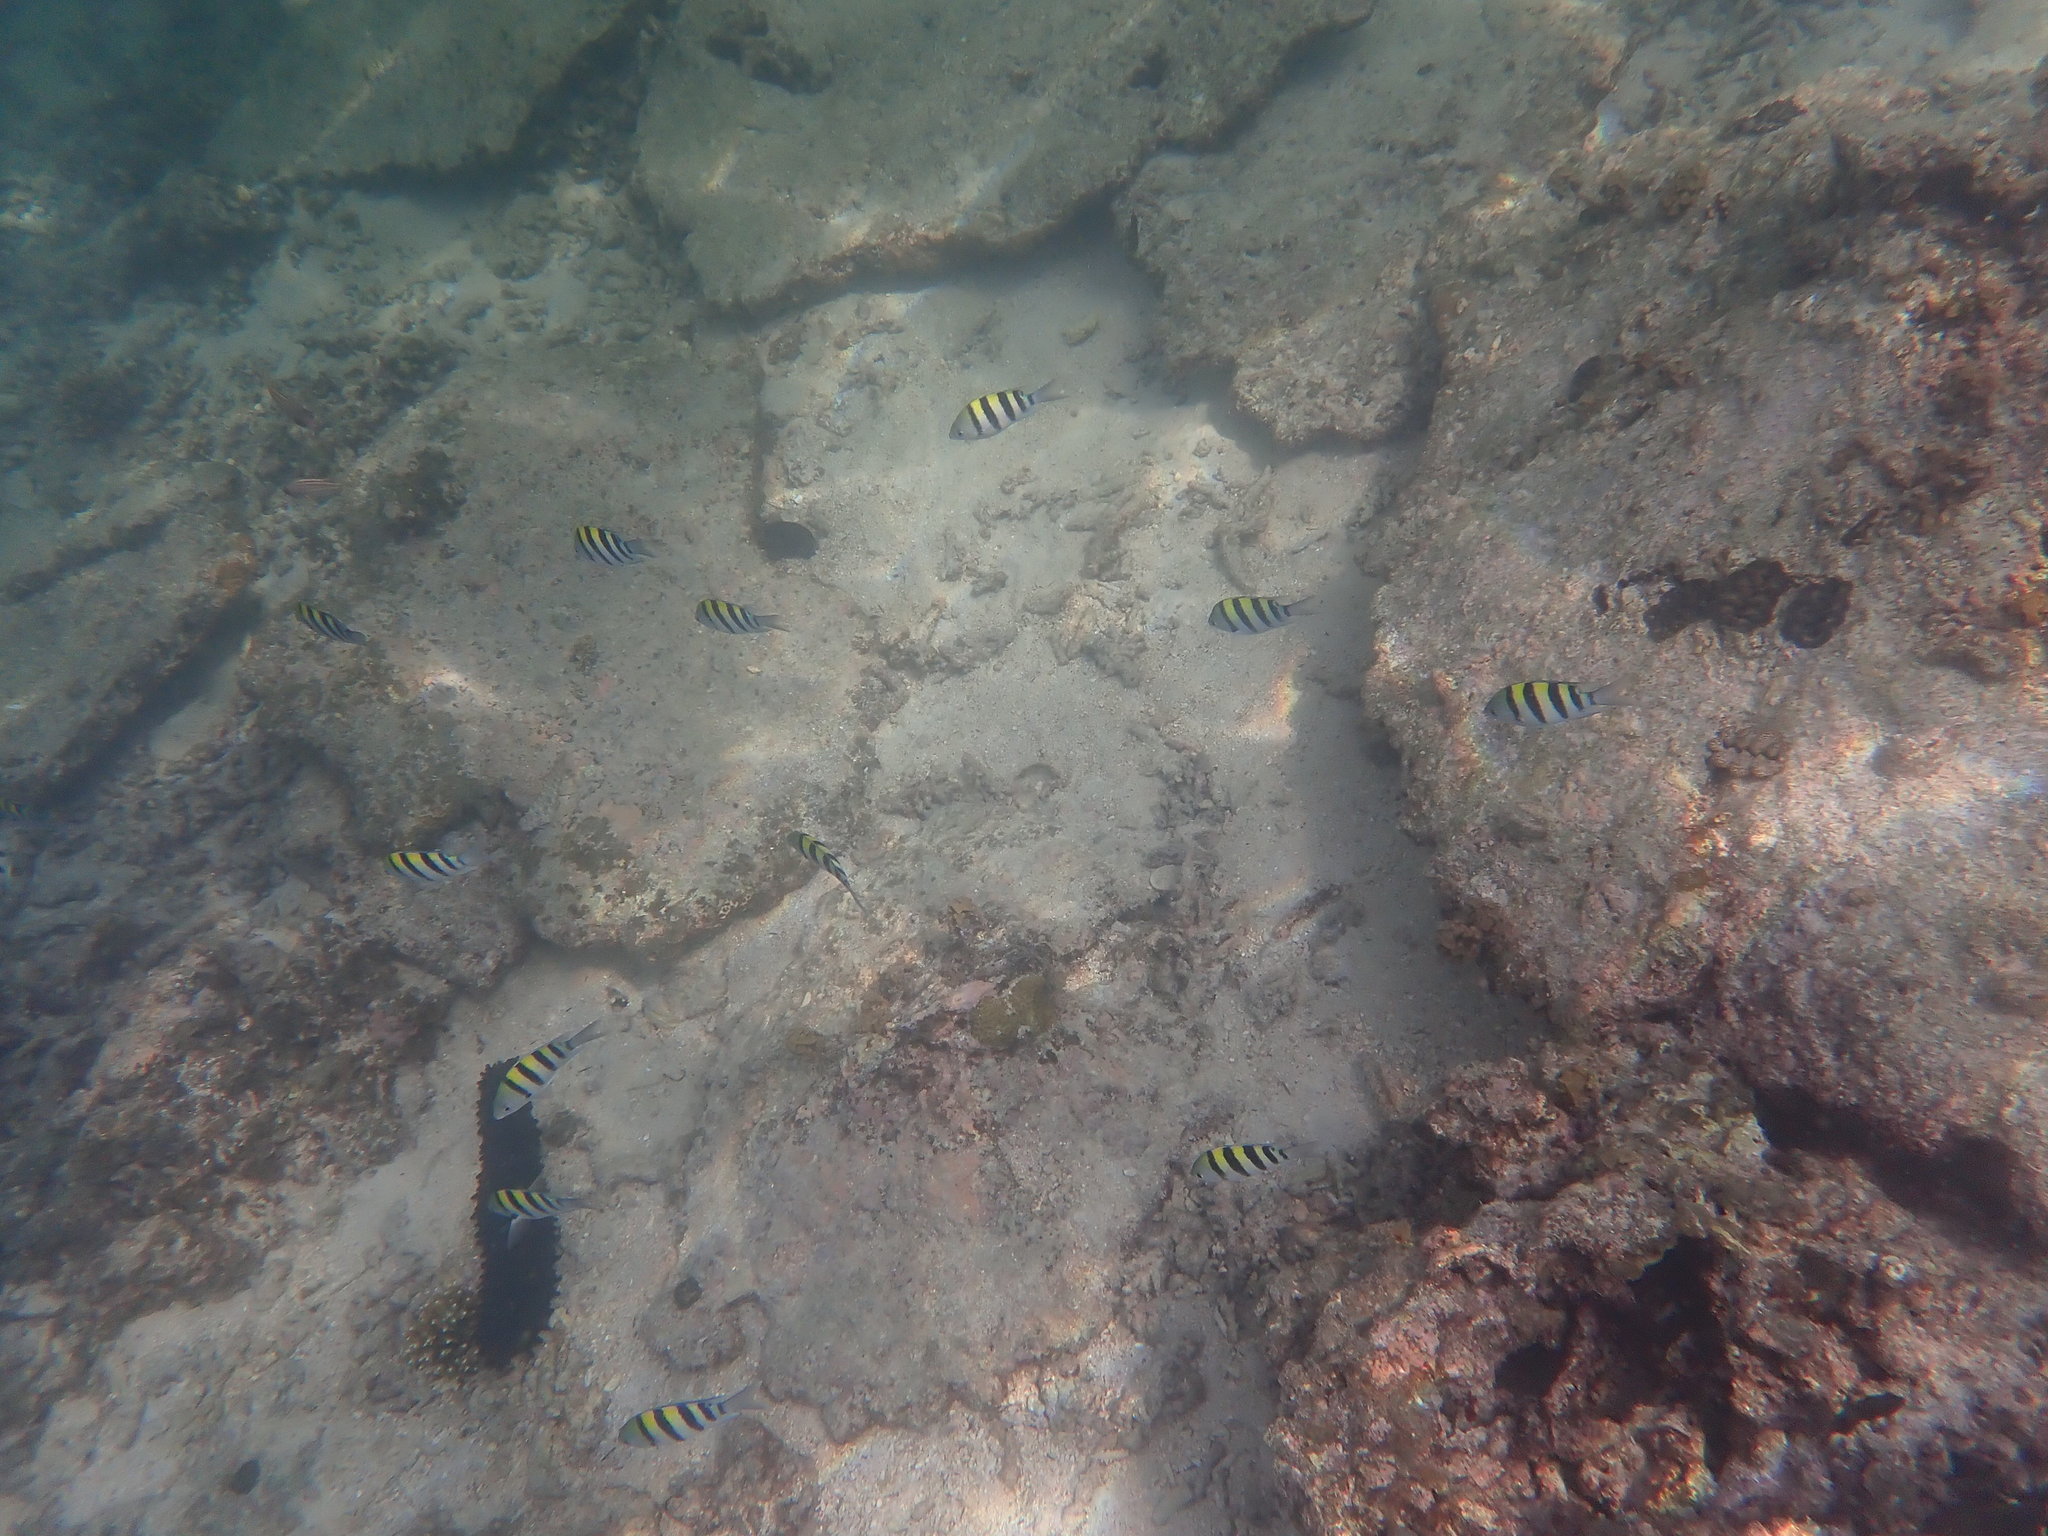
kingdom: Animalia
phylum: Chordata
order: Perciformes
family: Pomacentridae
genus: Abudefduf
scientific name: Abudefduf vaigiensis
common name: Indo-pacific sergeant
